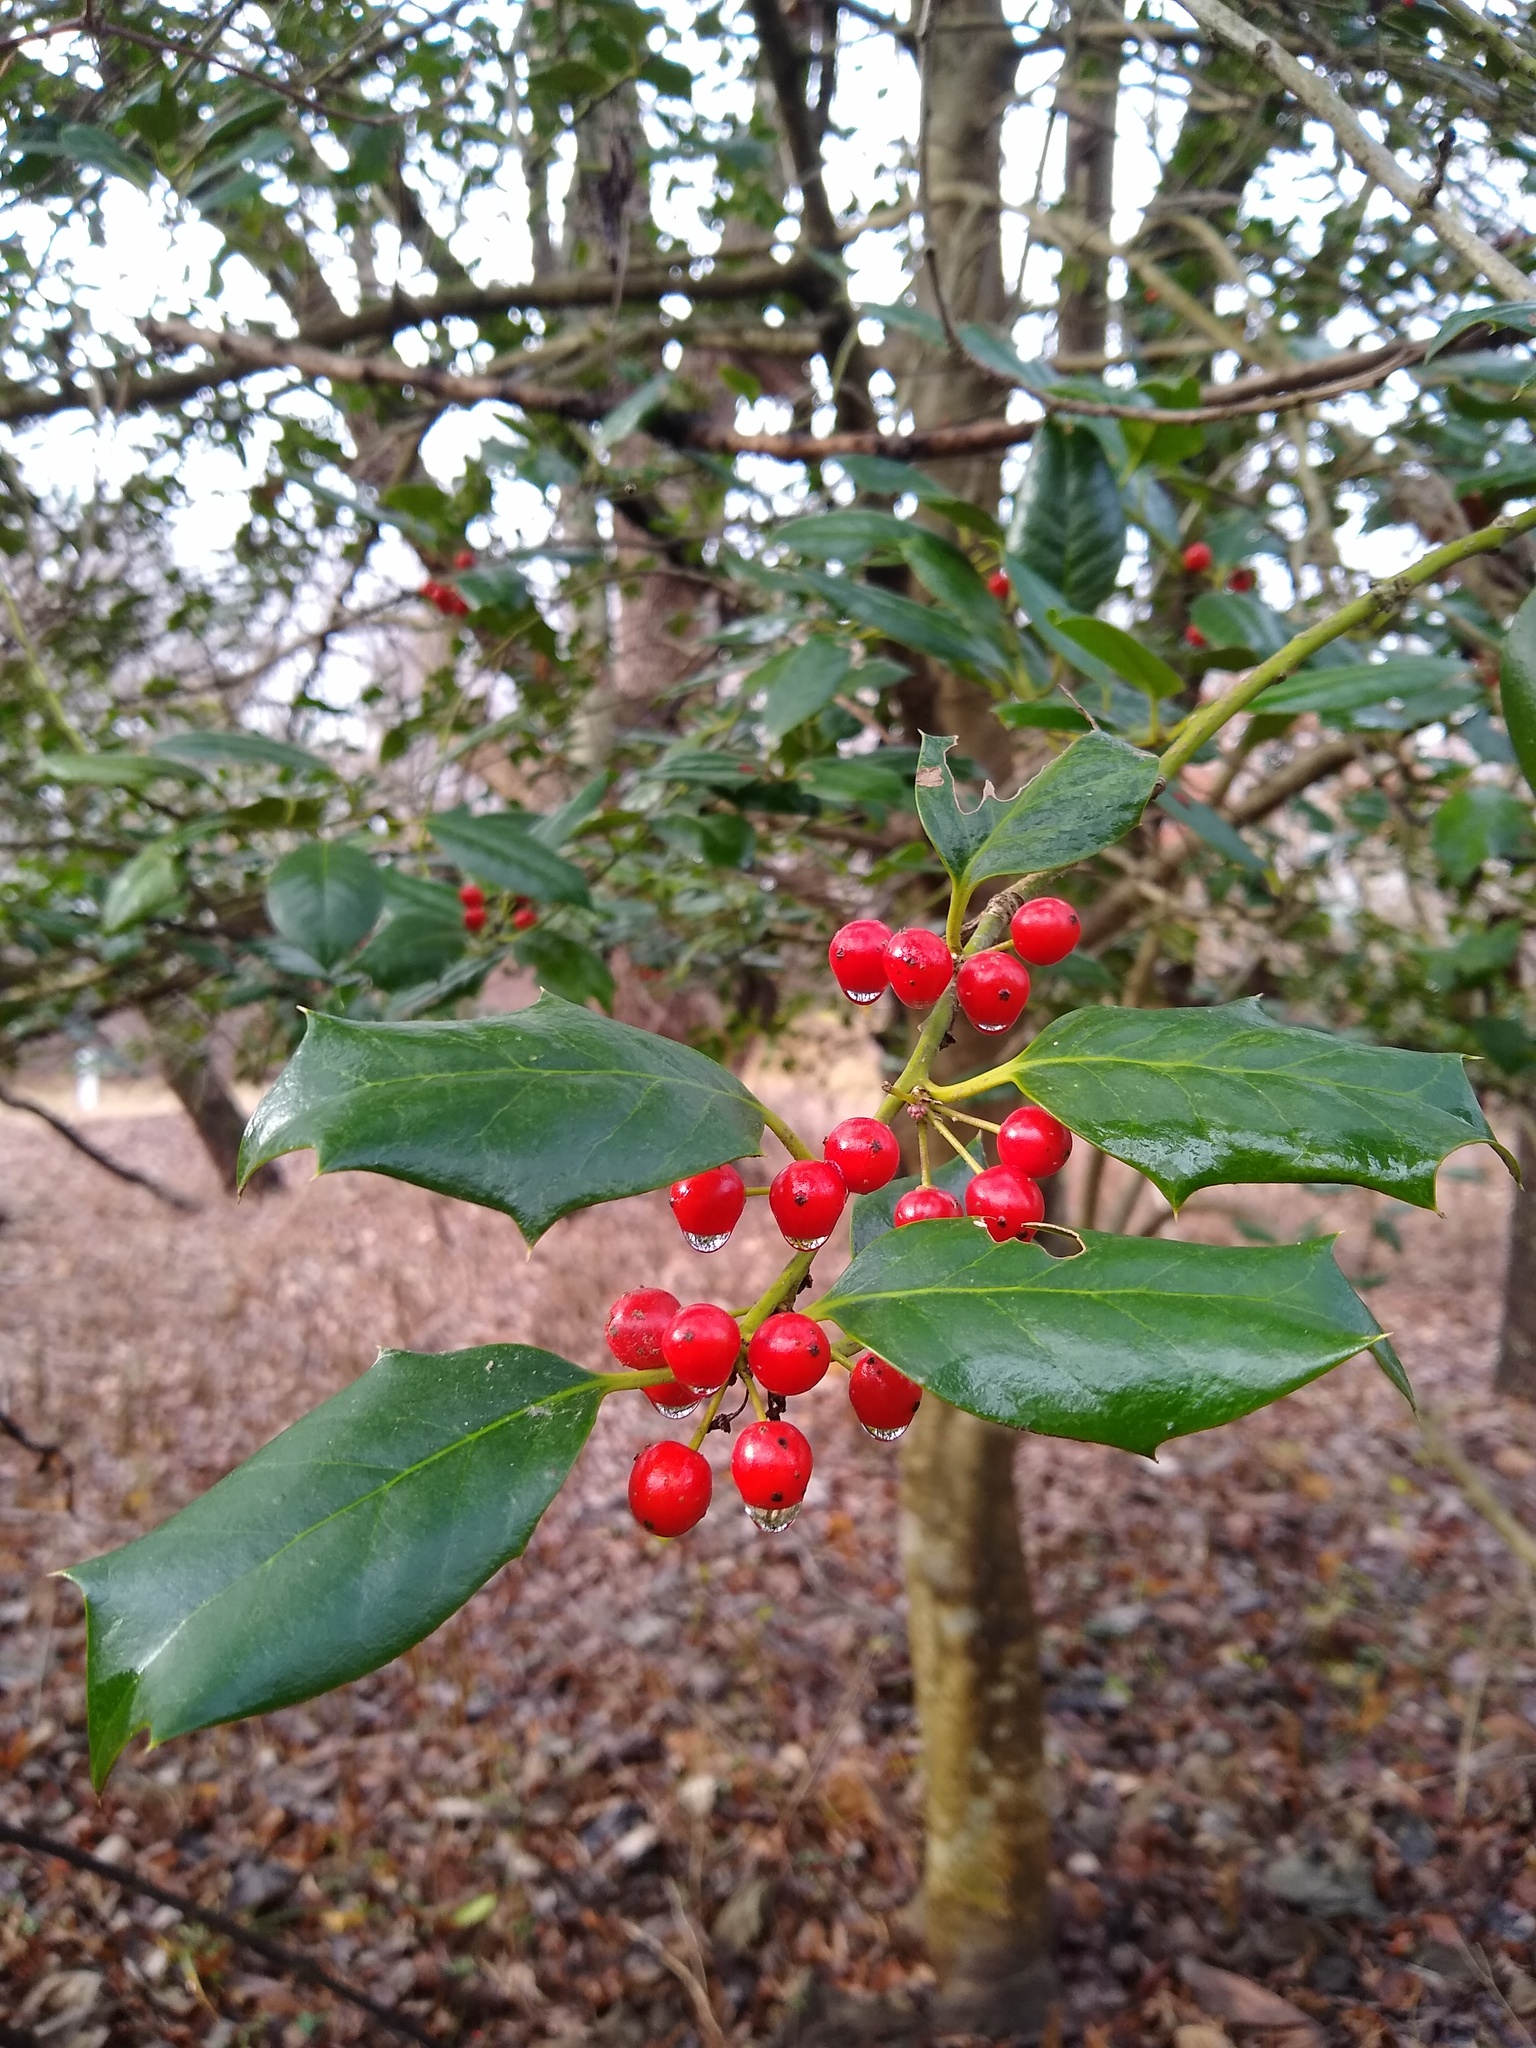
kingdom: Plantae
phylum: Tracheophyta
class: Magnoliopsida
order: Aquifoliales
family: Aquifoliaceae
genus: Ilex
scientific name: Ilex opaca
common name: American holly
